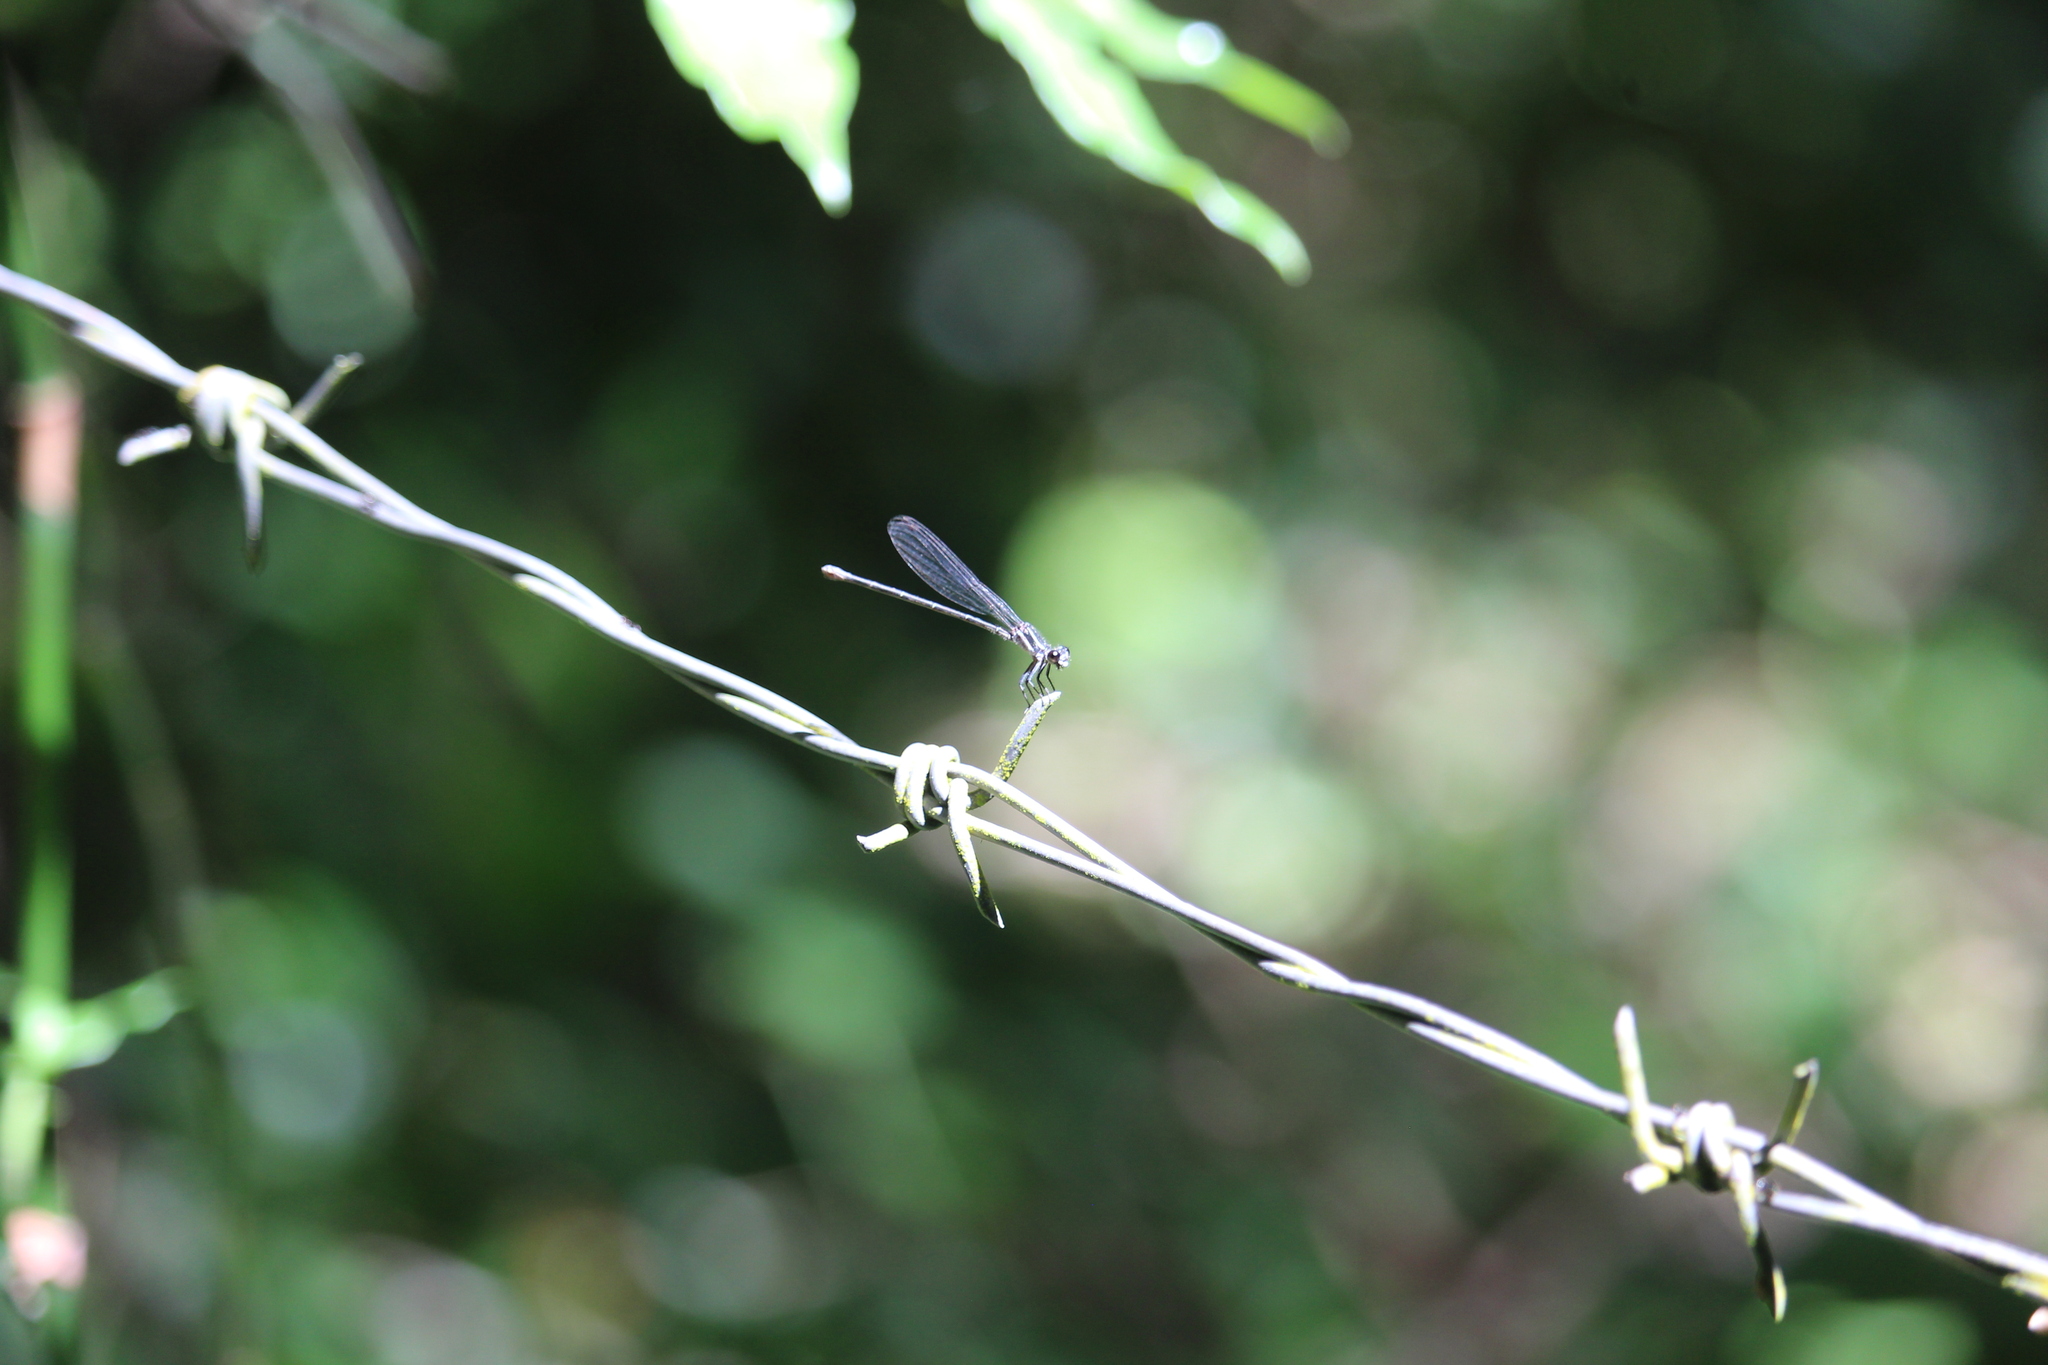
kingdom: Animalia
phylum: Arthropoda
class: Insecta
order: Odonata
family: Coenagrionidae
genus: Argia
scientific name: Argia pulla
